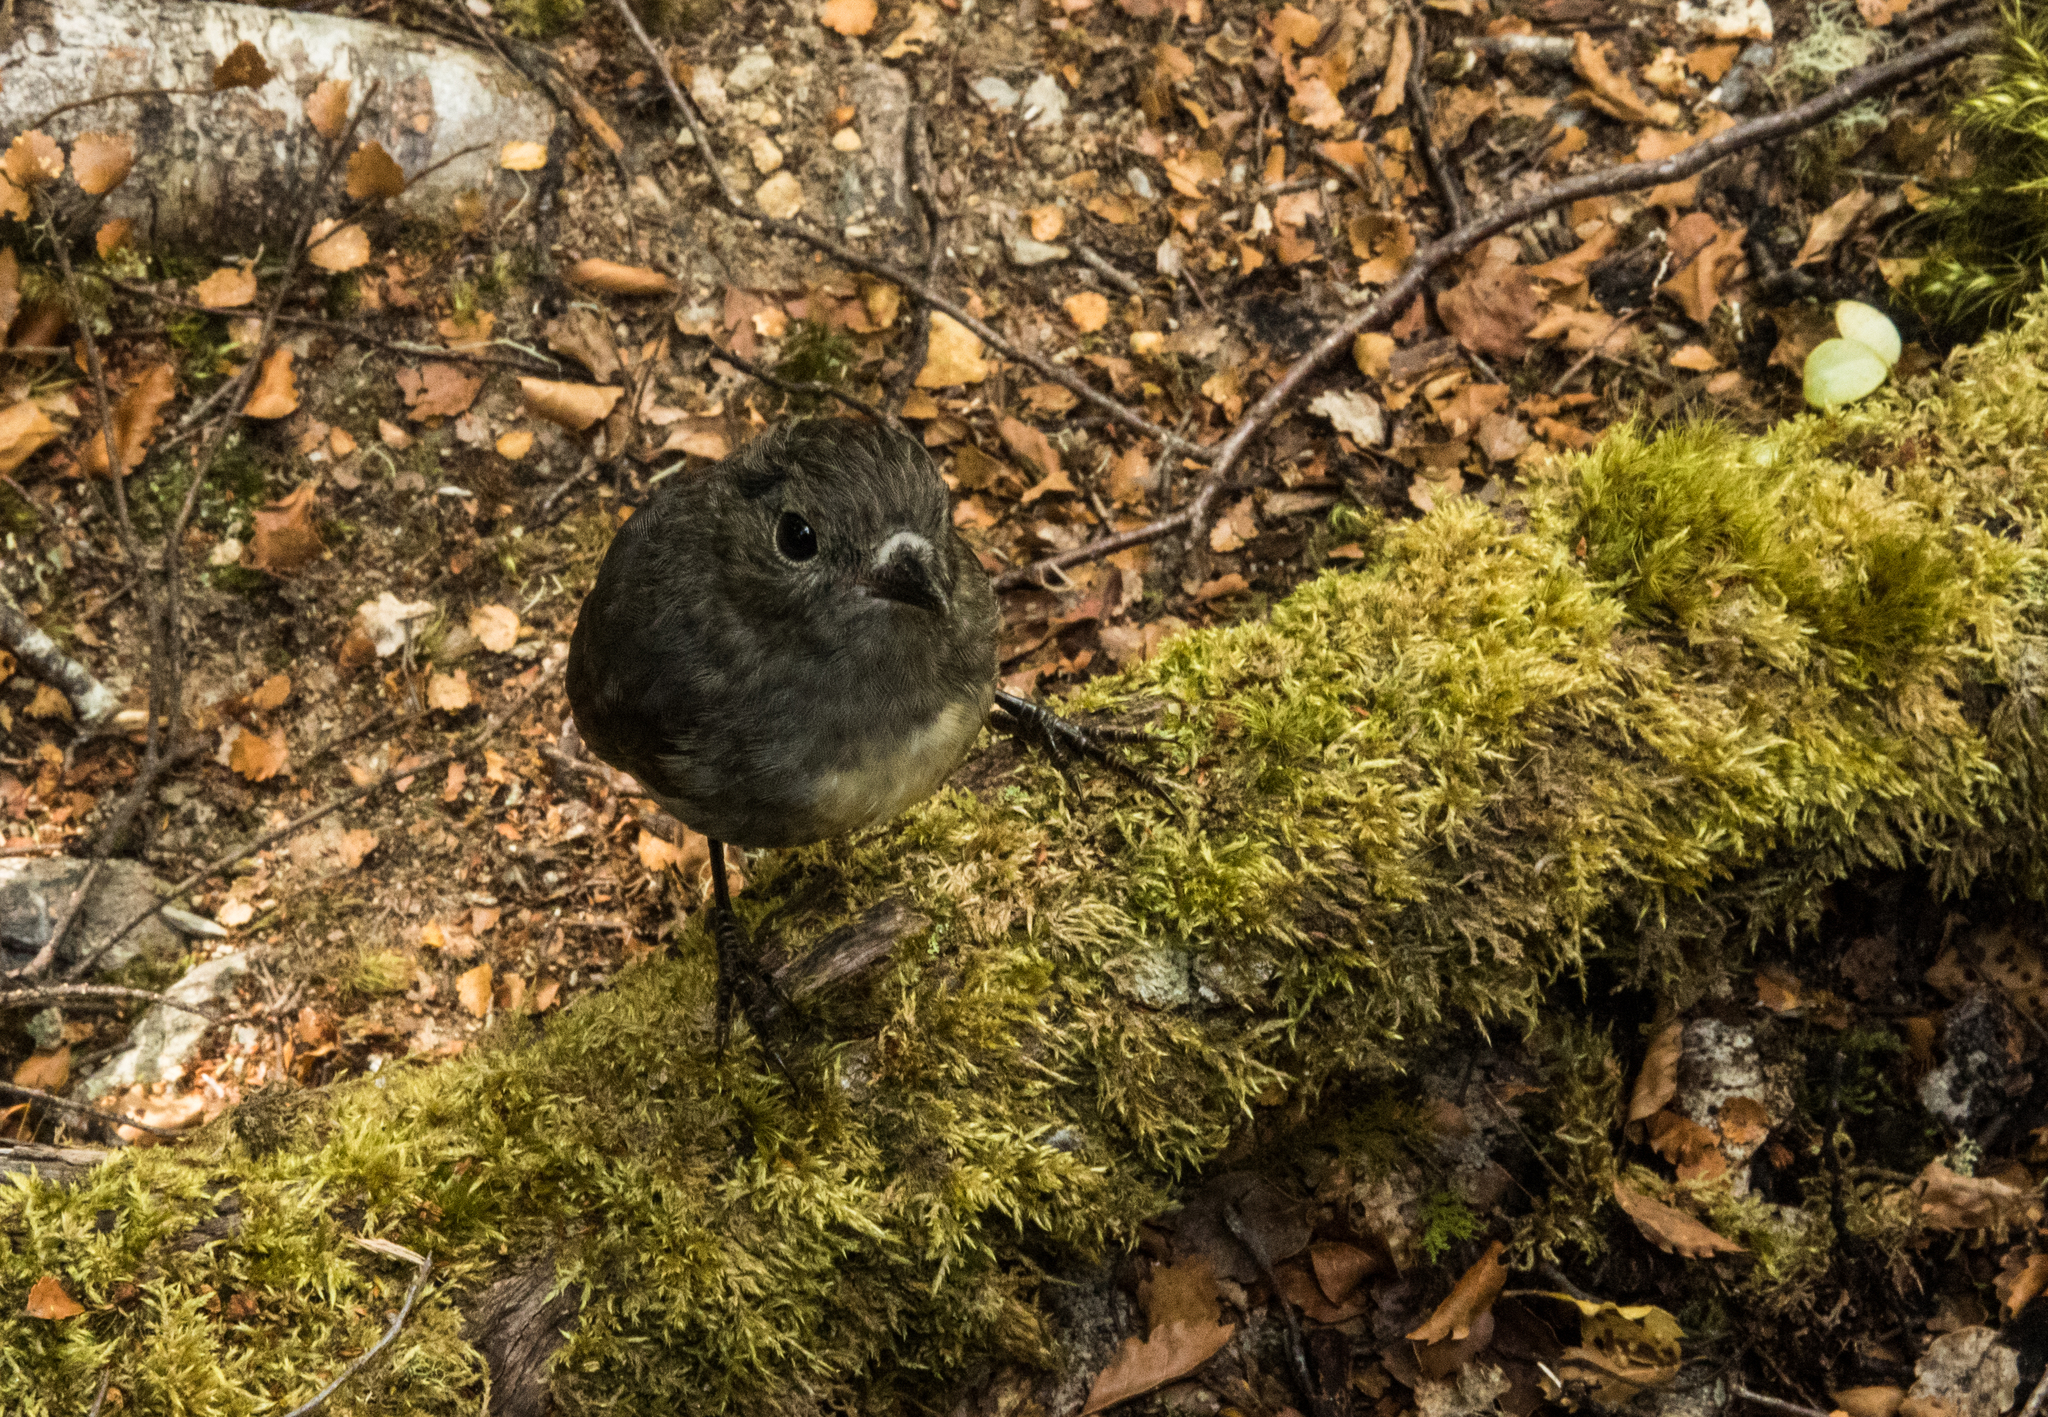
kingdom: Animalia
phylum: Chordata
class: Aves
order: Passeriformes
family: Petroicidae
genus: Petroica
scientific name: Petroica australis
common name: New zealand robin
